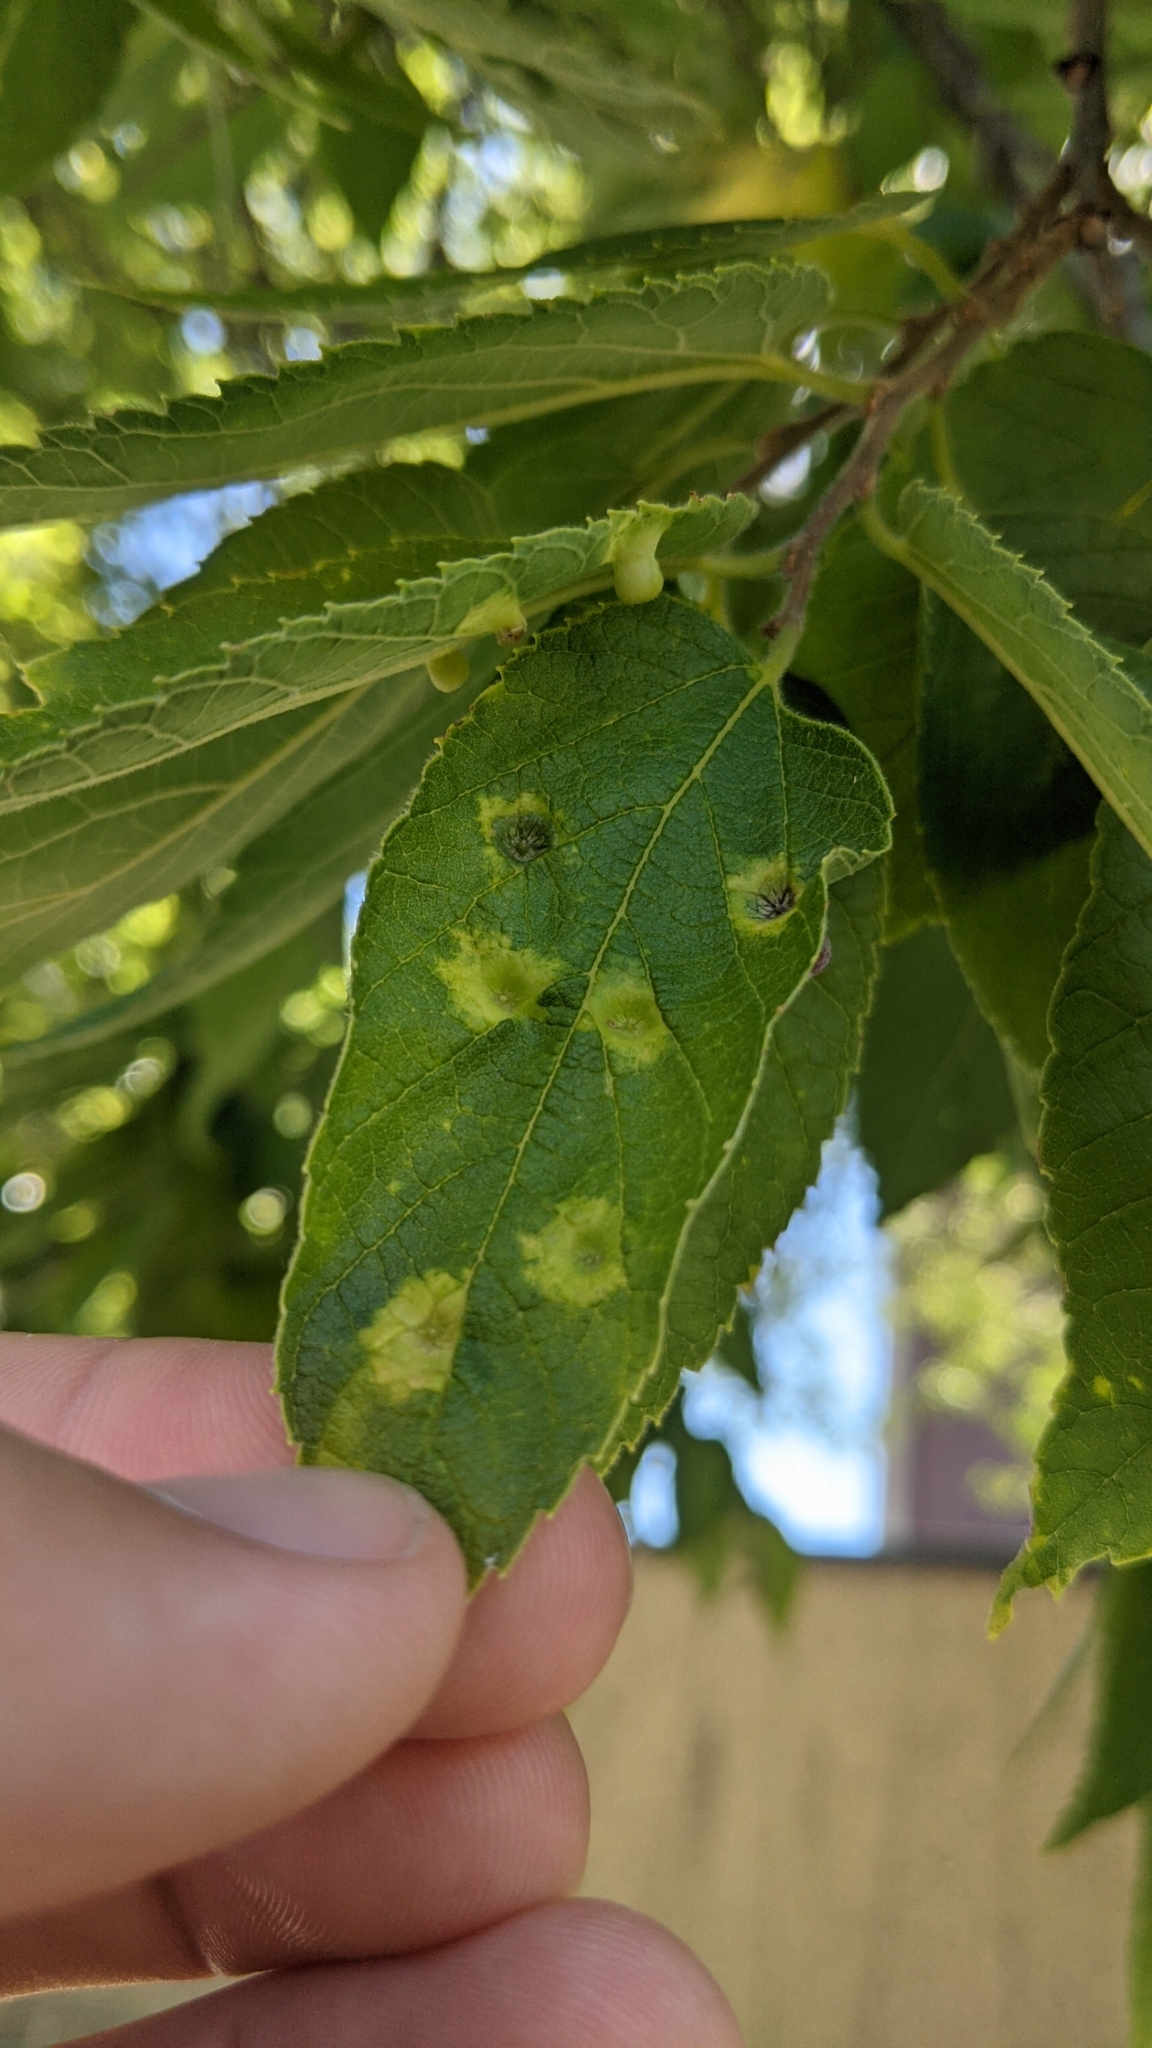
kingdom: Animalia
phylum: Arthropoda
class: Insecta
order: Hemiptera
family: Aphalaridae
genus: Pachypsylla
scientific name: Pachypsylla celtidismamma
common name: Hackberry nipplegall psyllid
